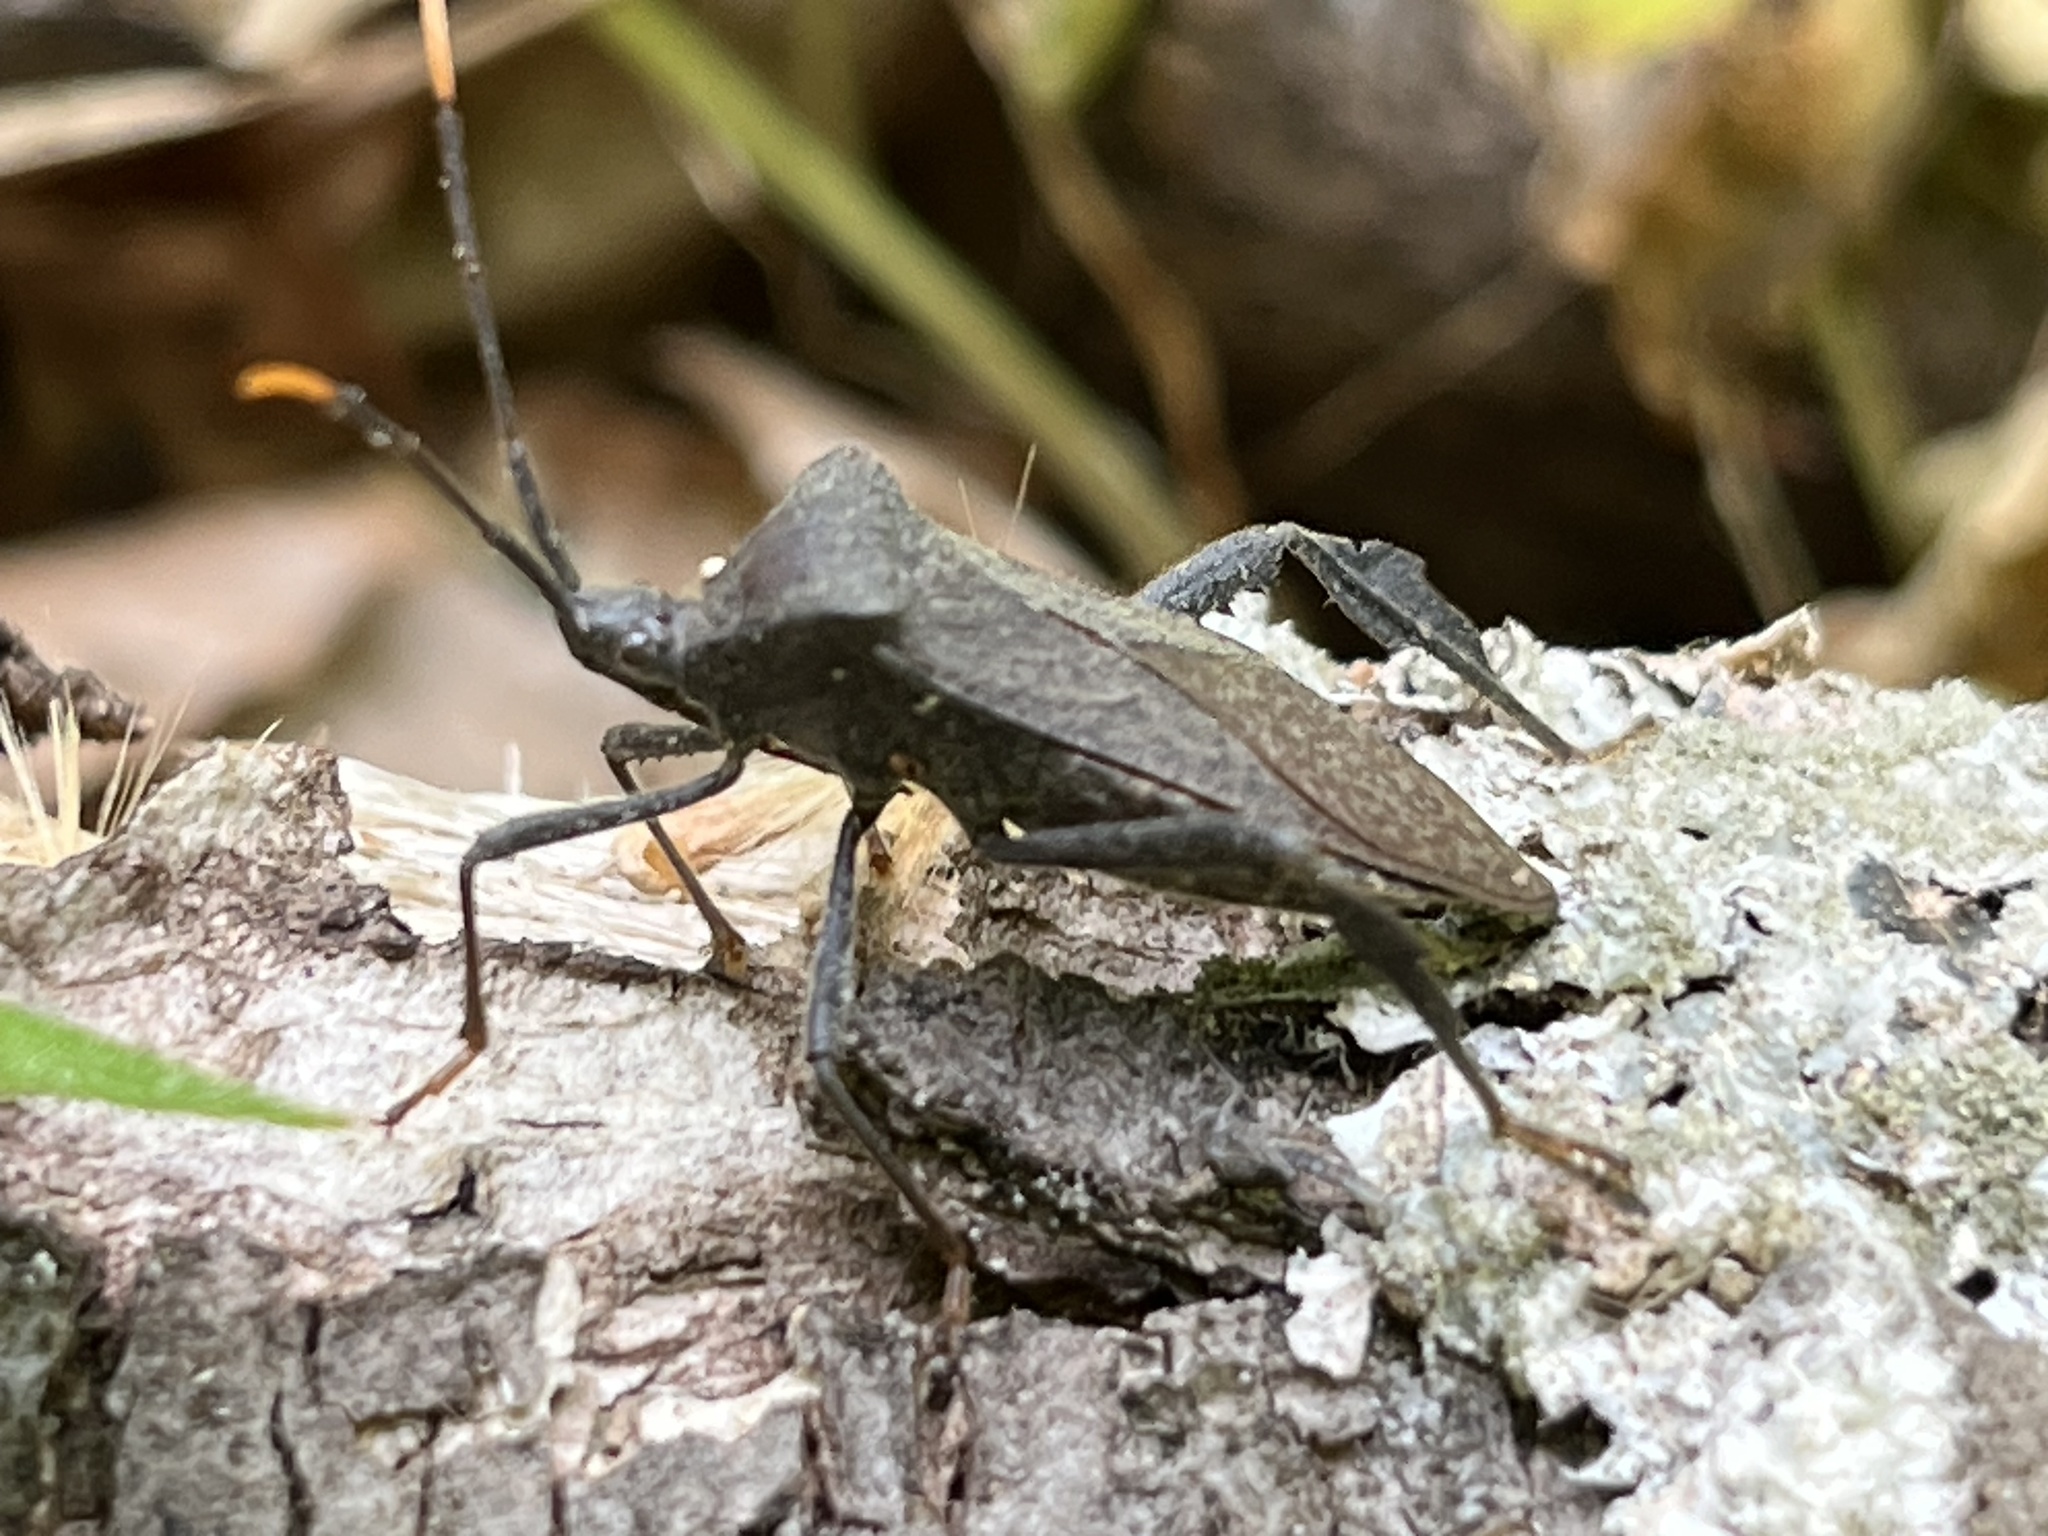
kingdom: Animalia
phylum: Arthropoda
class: Insecta
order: Hemiptera
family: Coreidae
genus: Acanthocephala
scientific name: Acanthocephala terminalis
